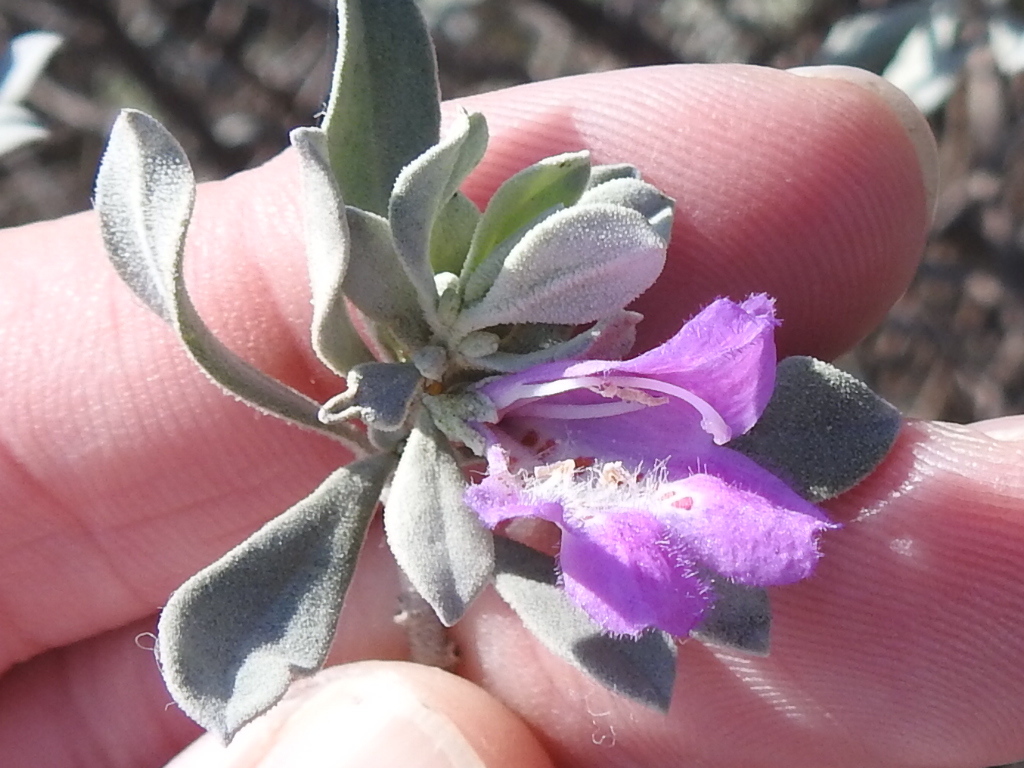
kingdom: Plantae
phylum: Tracheophyta
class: Magnoliopsida
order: Lamiales
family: Scrophulariaceae
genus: Leucophyllum
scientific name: Leucophyllum frutescens
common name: Texas silverleaf
